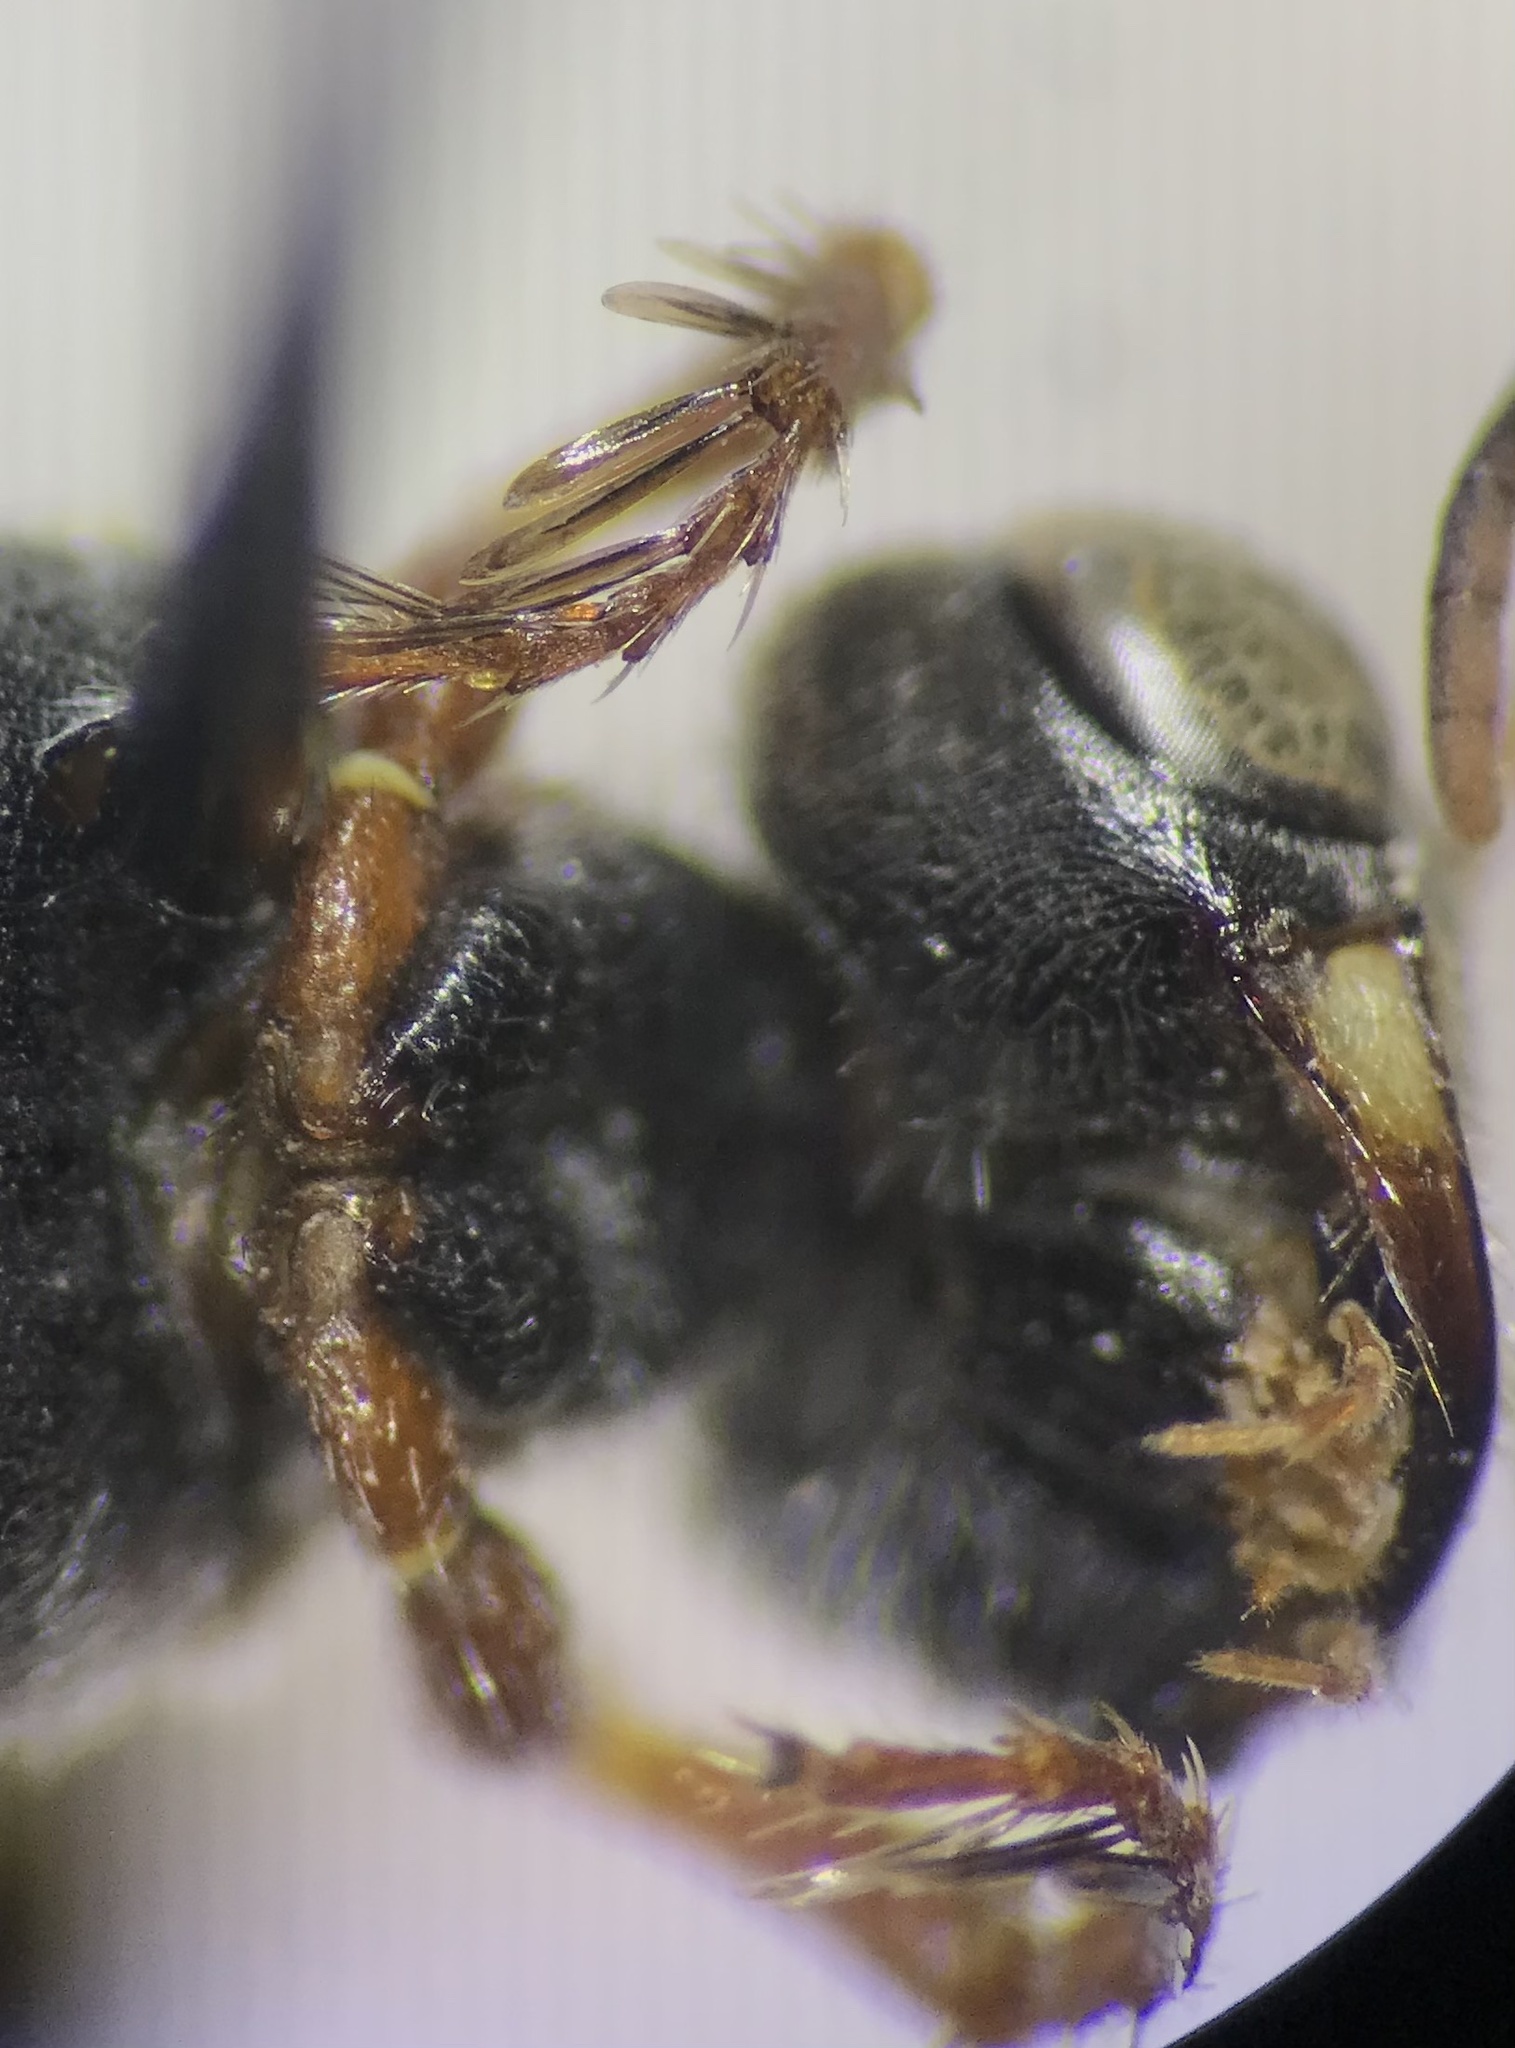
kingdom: Animalia
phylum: Arthropoda
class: Insecta
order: Hymenoptera
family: Crabronidae
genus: Clypeadon
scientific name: Clypeadon laticinctus
